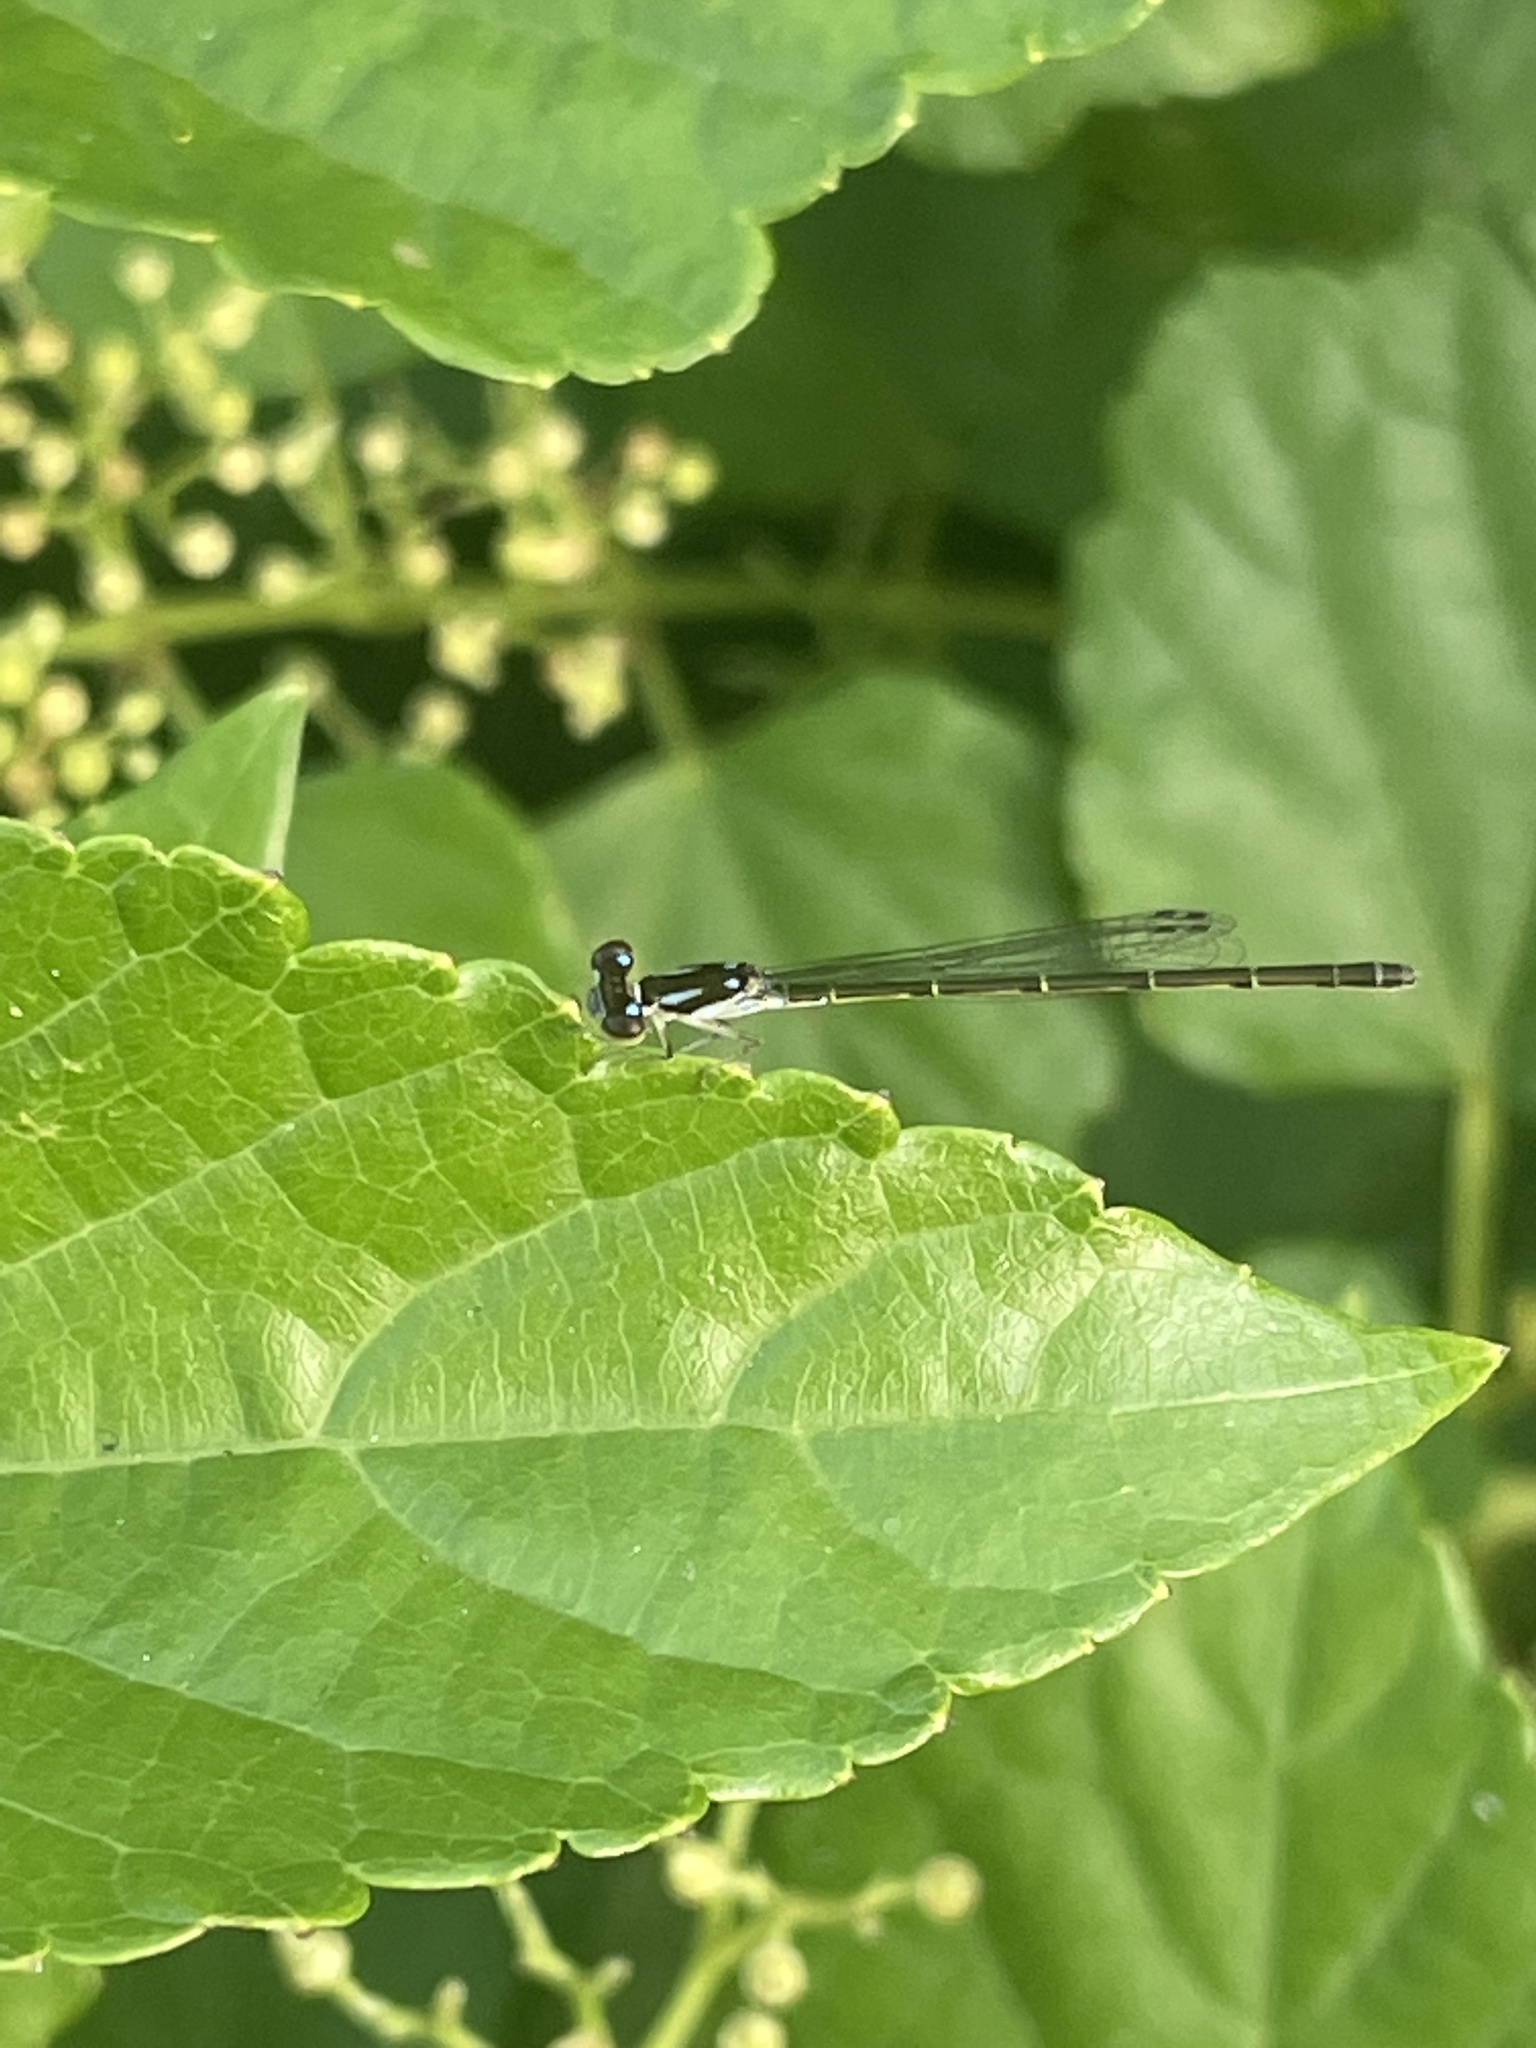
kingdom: Animalia
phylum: Arthropoda
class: Insecta
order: Odonata
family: Coenagrionidae
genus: Ischnura
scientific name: Ischnura posita
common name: Fragile forktail
